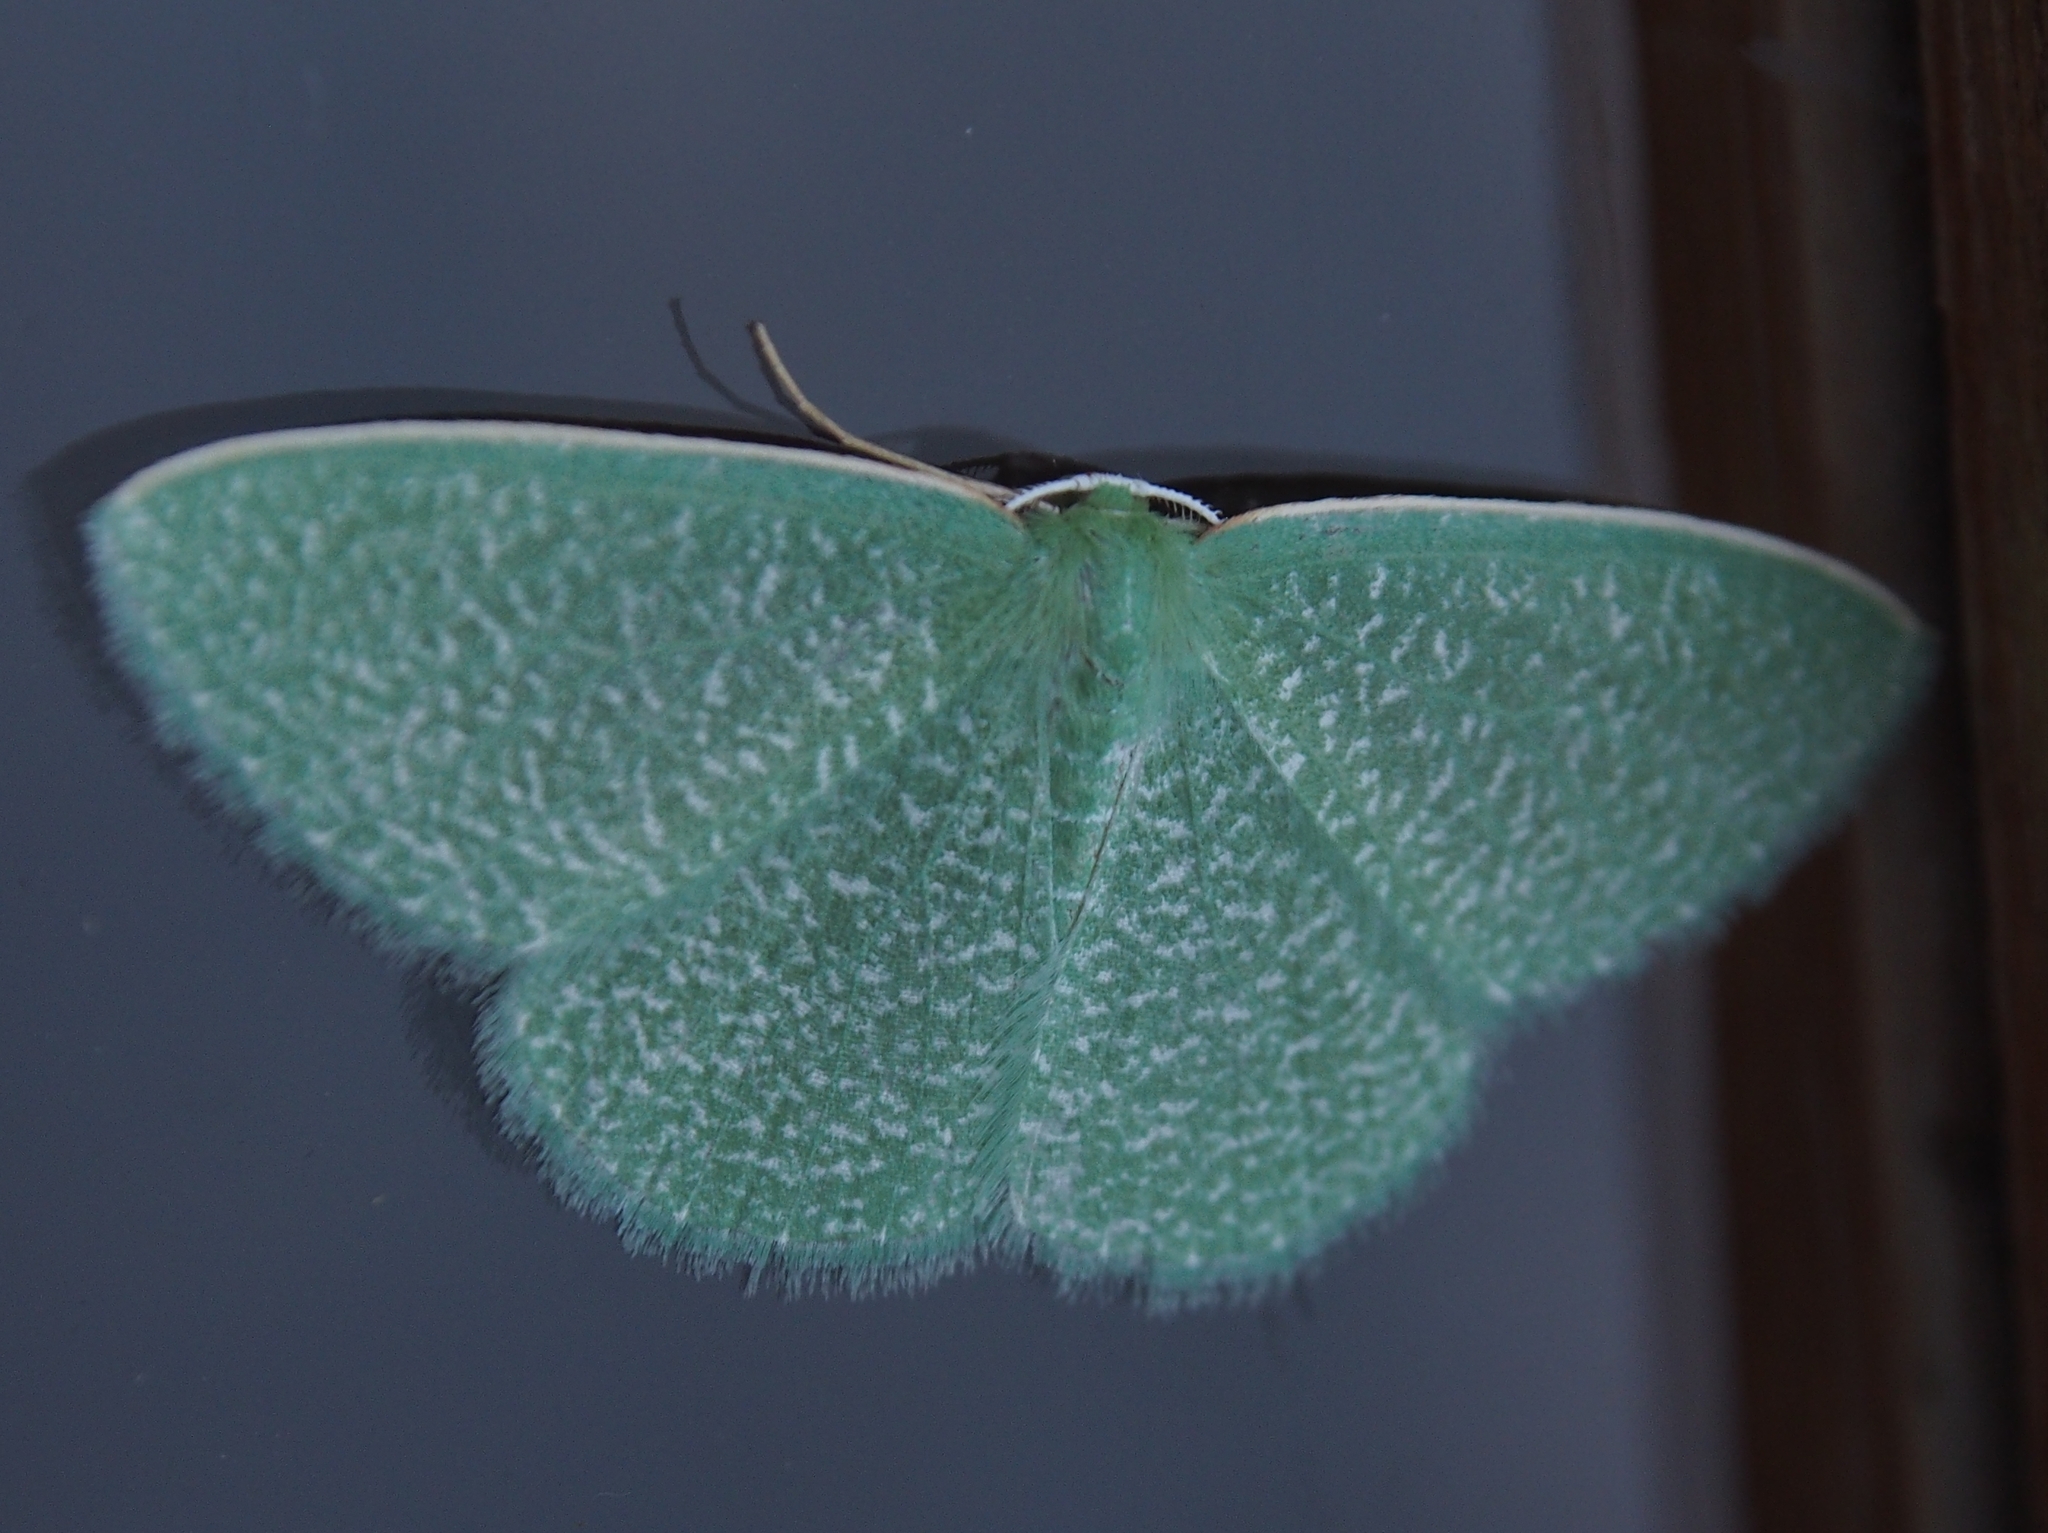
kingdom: Animalia
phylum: Arthropoda
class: Insecta
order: Lepidoptera
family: Geometridae
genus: Nemoria
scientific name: Nemoria strigaria
